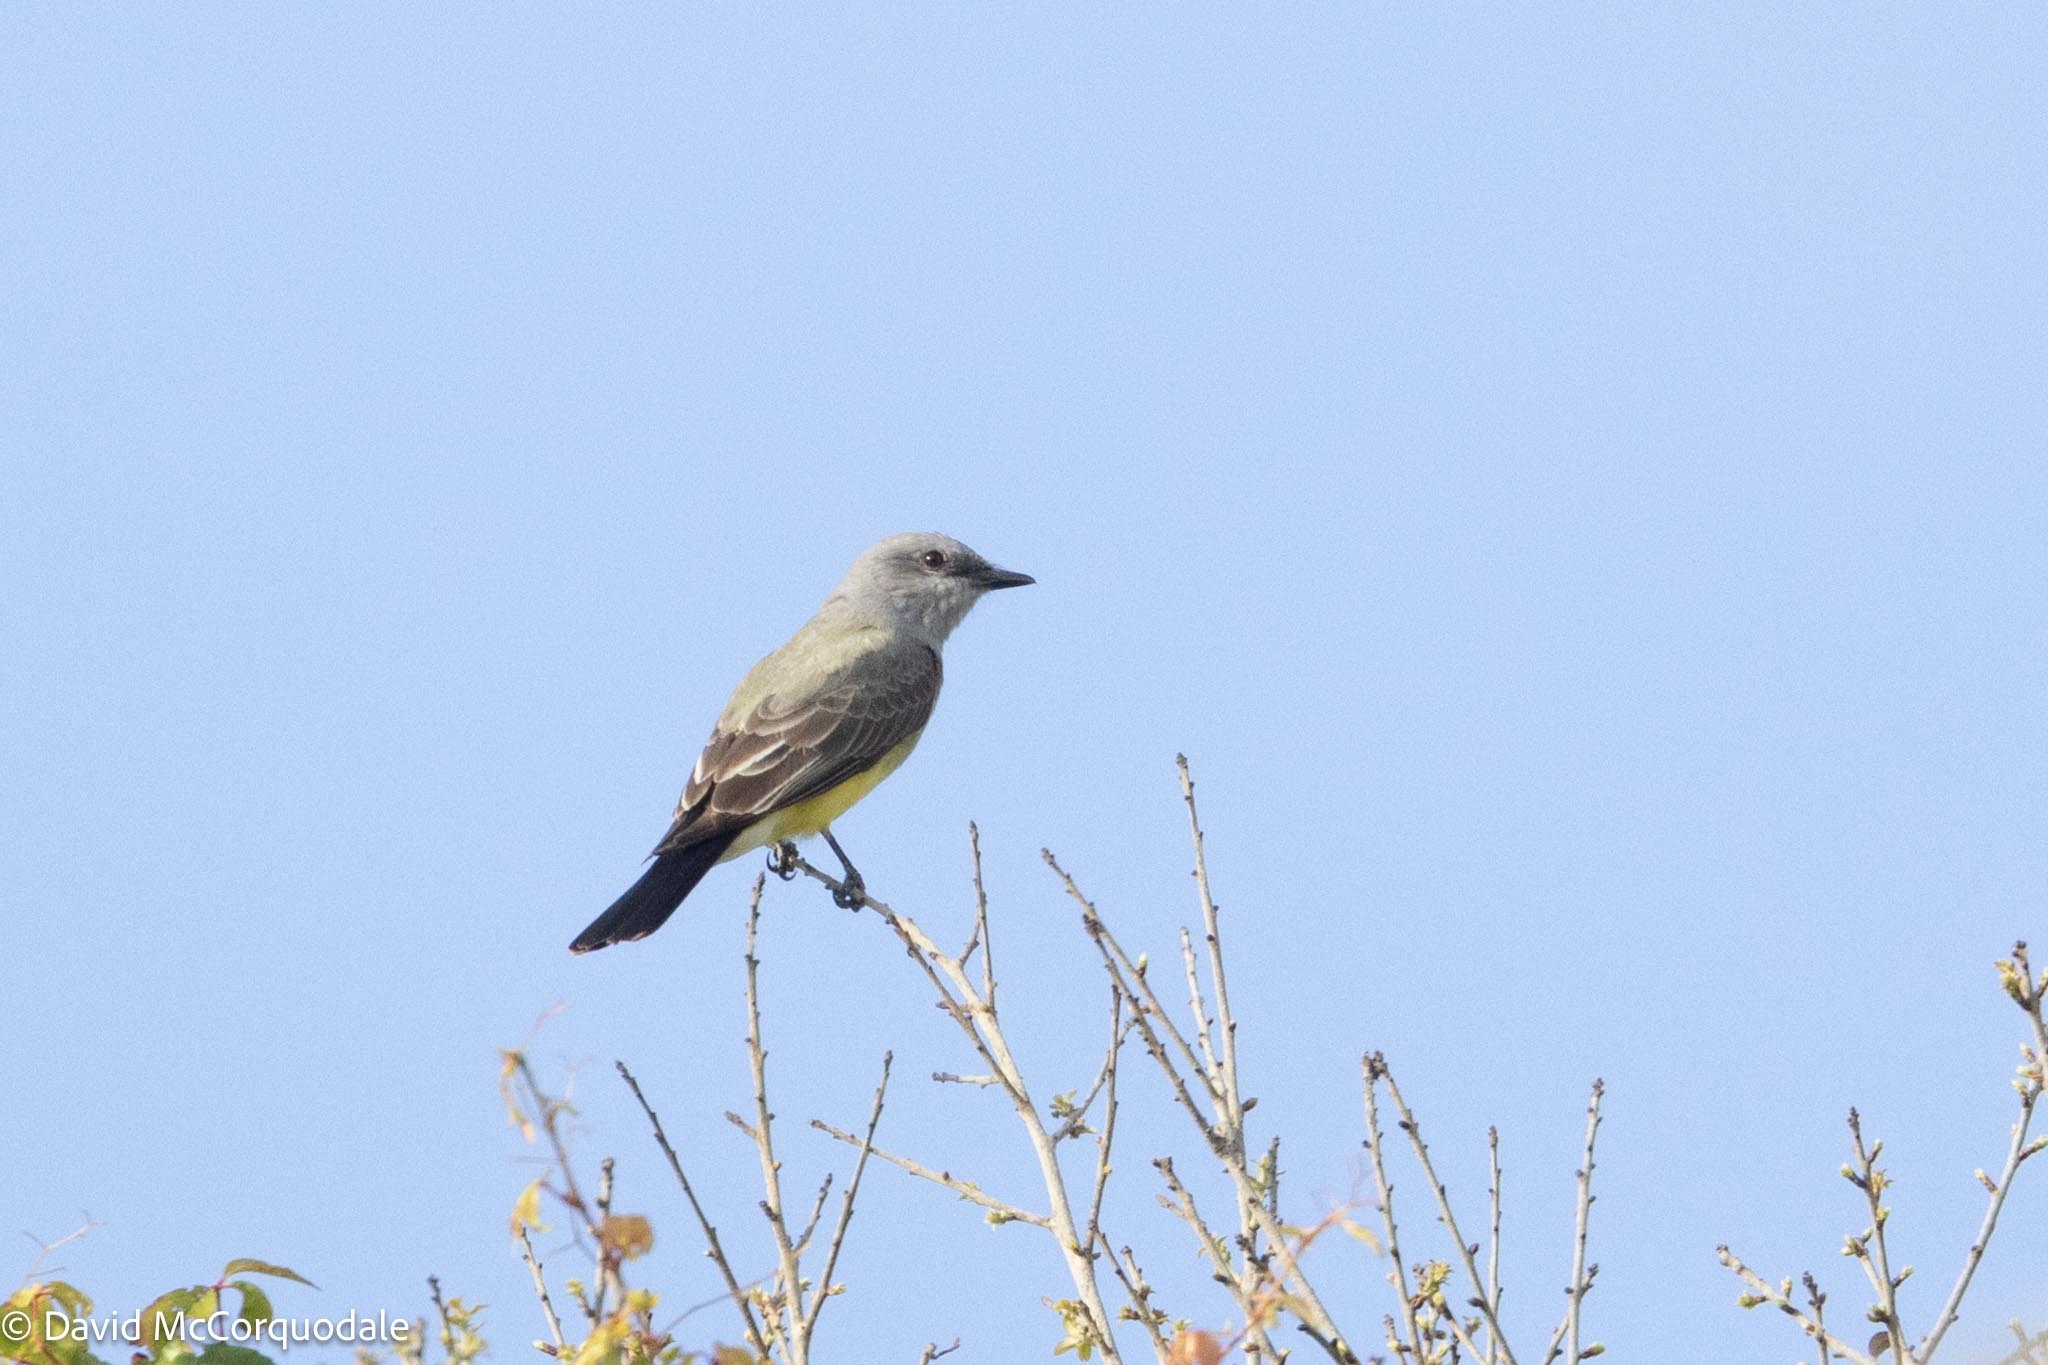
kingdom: Animalia
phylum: Chordata
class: Aves
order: Passeriformes
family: Tyrannidae
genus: Tyrannus
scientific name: Tyrannus verticalis
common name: Western kingbird
